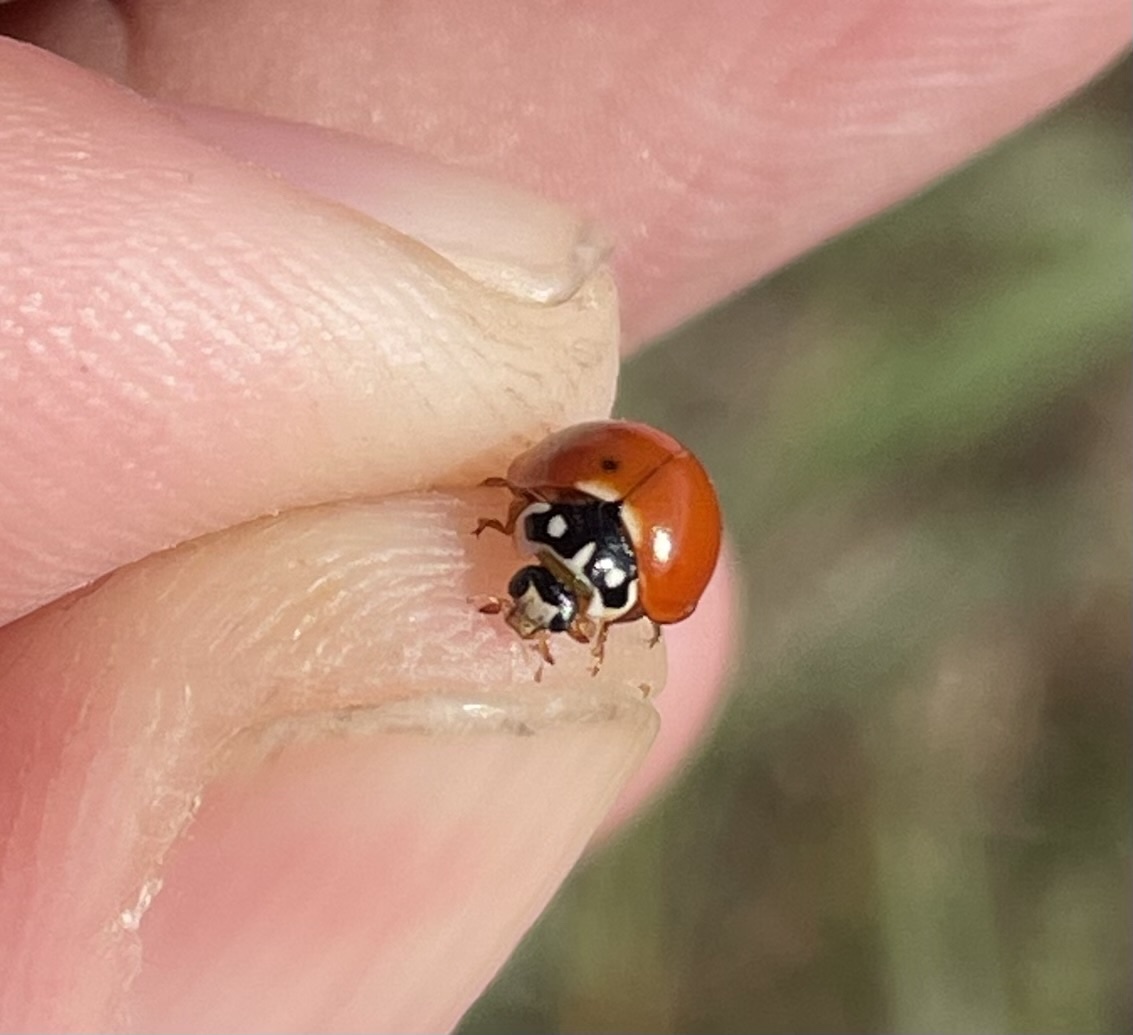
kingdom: Animalia
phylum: Arthropoda
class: Insecta
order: Coleoptera
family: Coccinellidae
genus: Cycloneda
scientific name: Cycloneda sanguinea
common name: Ladybird beetle
